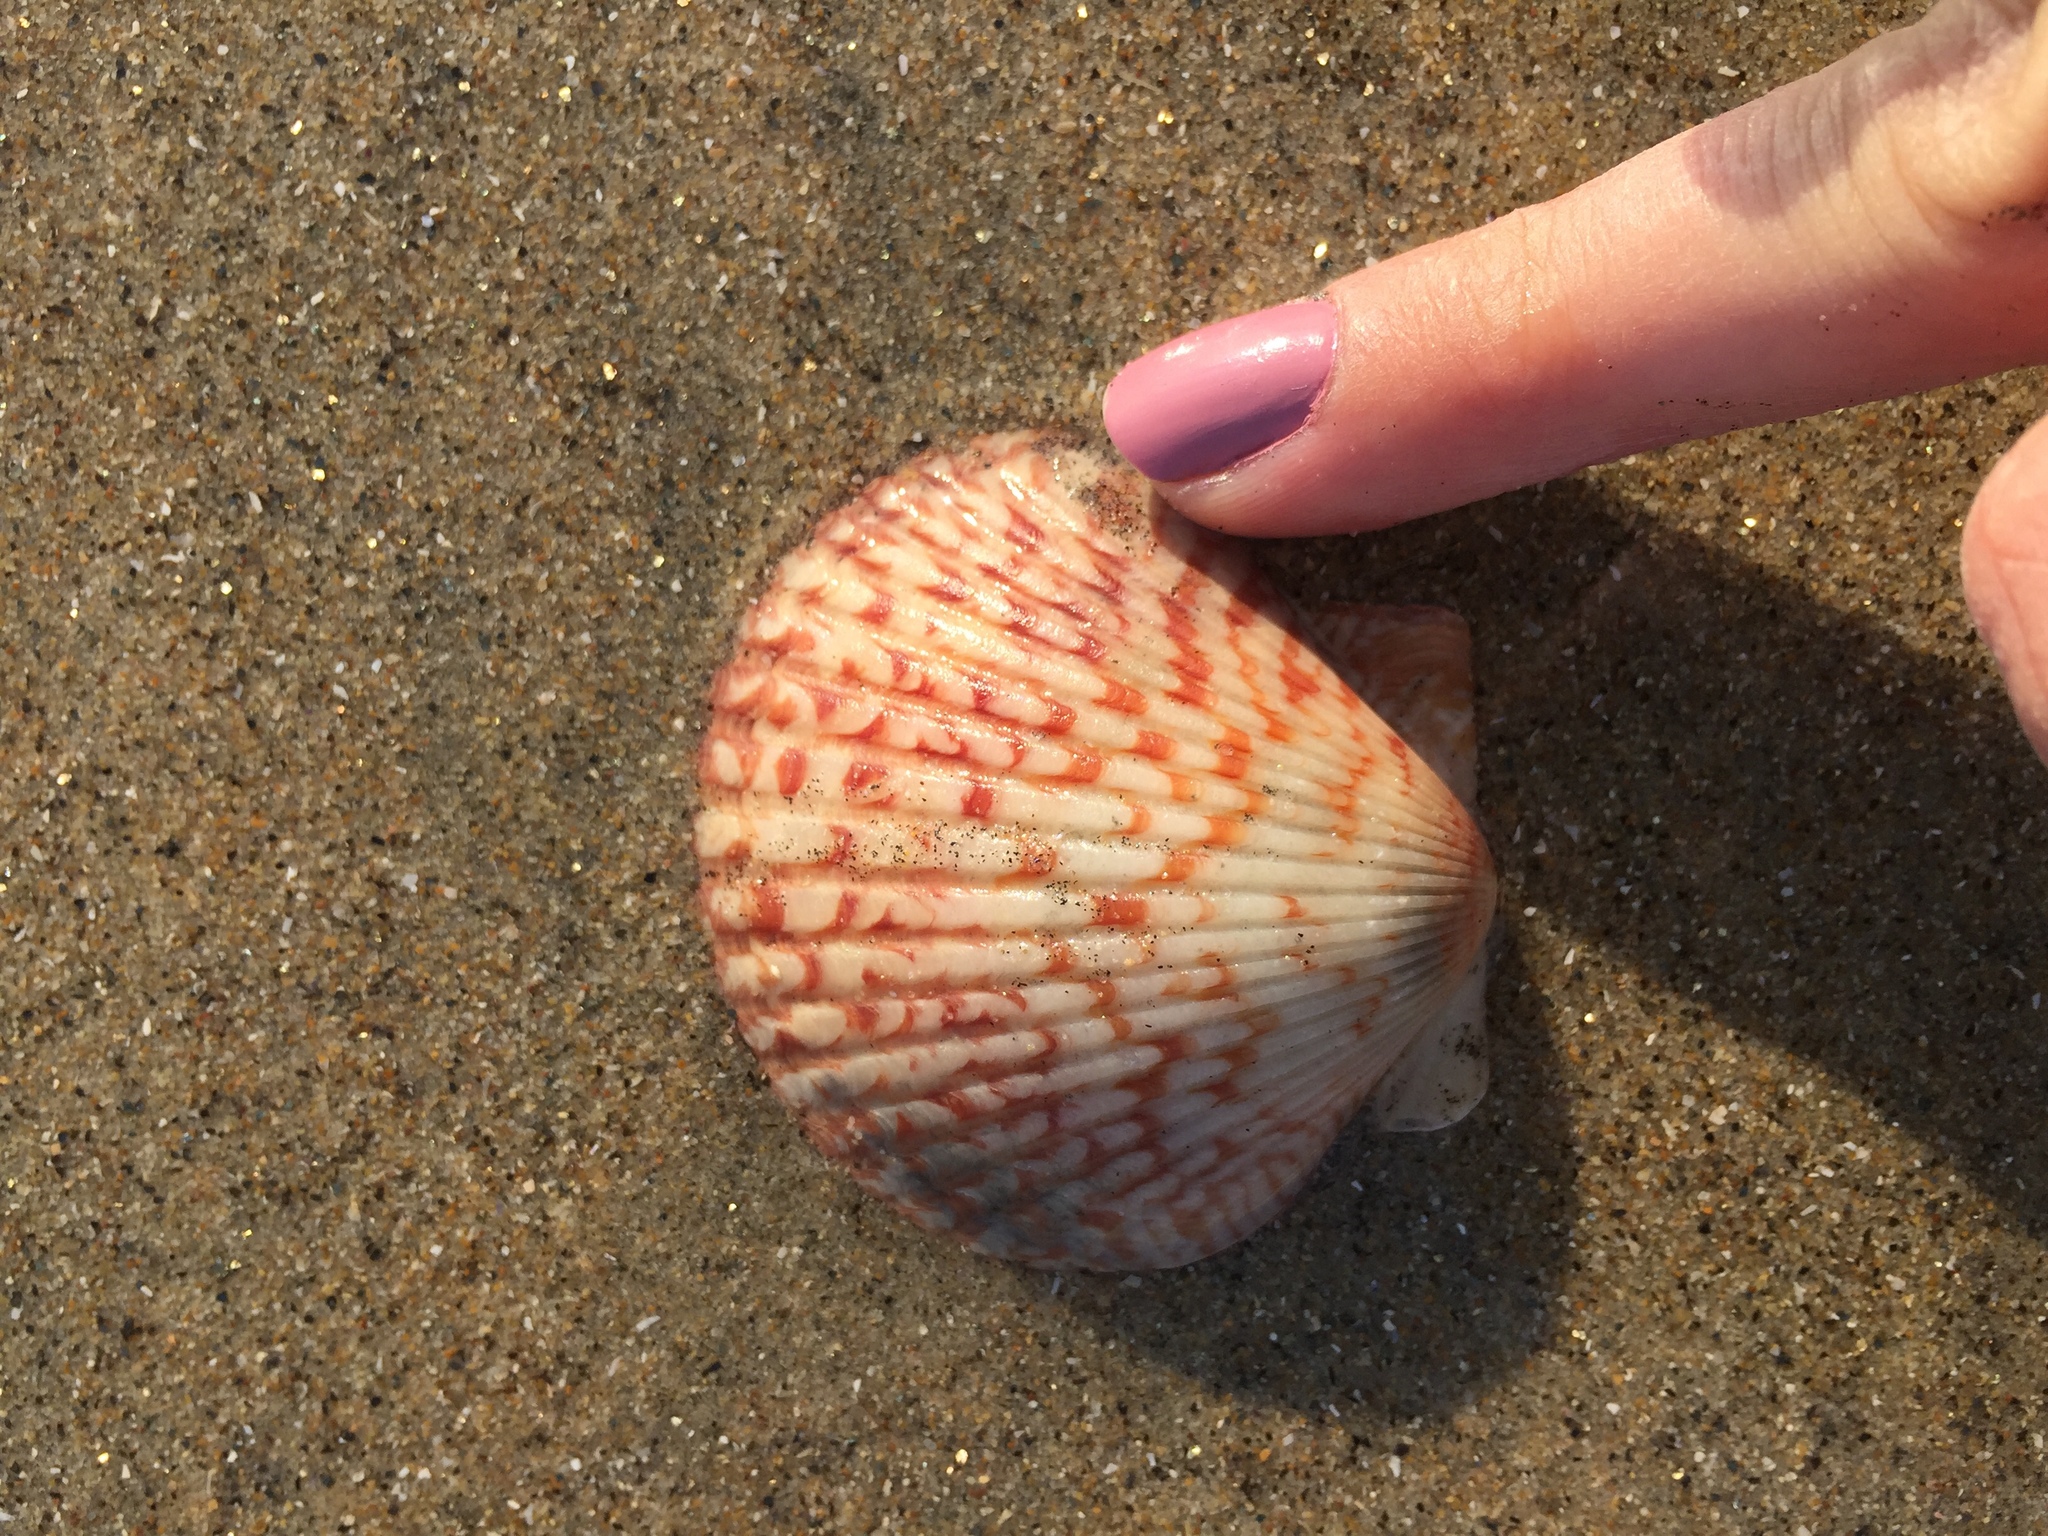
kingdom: Animalia
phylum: Mollusca
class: Bivalvia
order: Pectinida
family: Pectinidae
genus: Argopecten
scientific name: Argopecten ventricosus
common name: Catarina scallop
